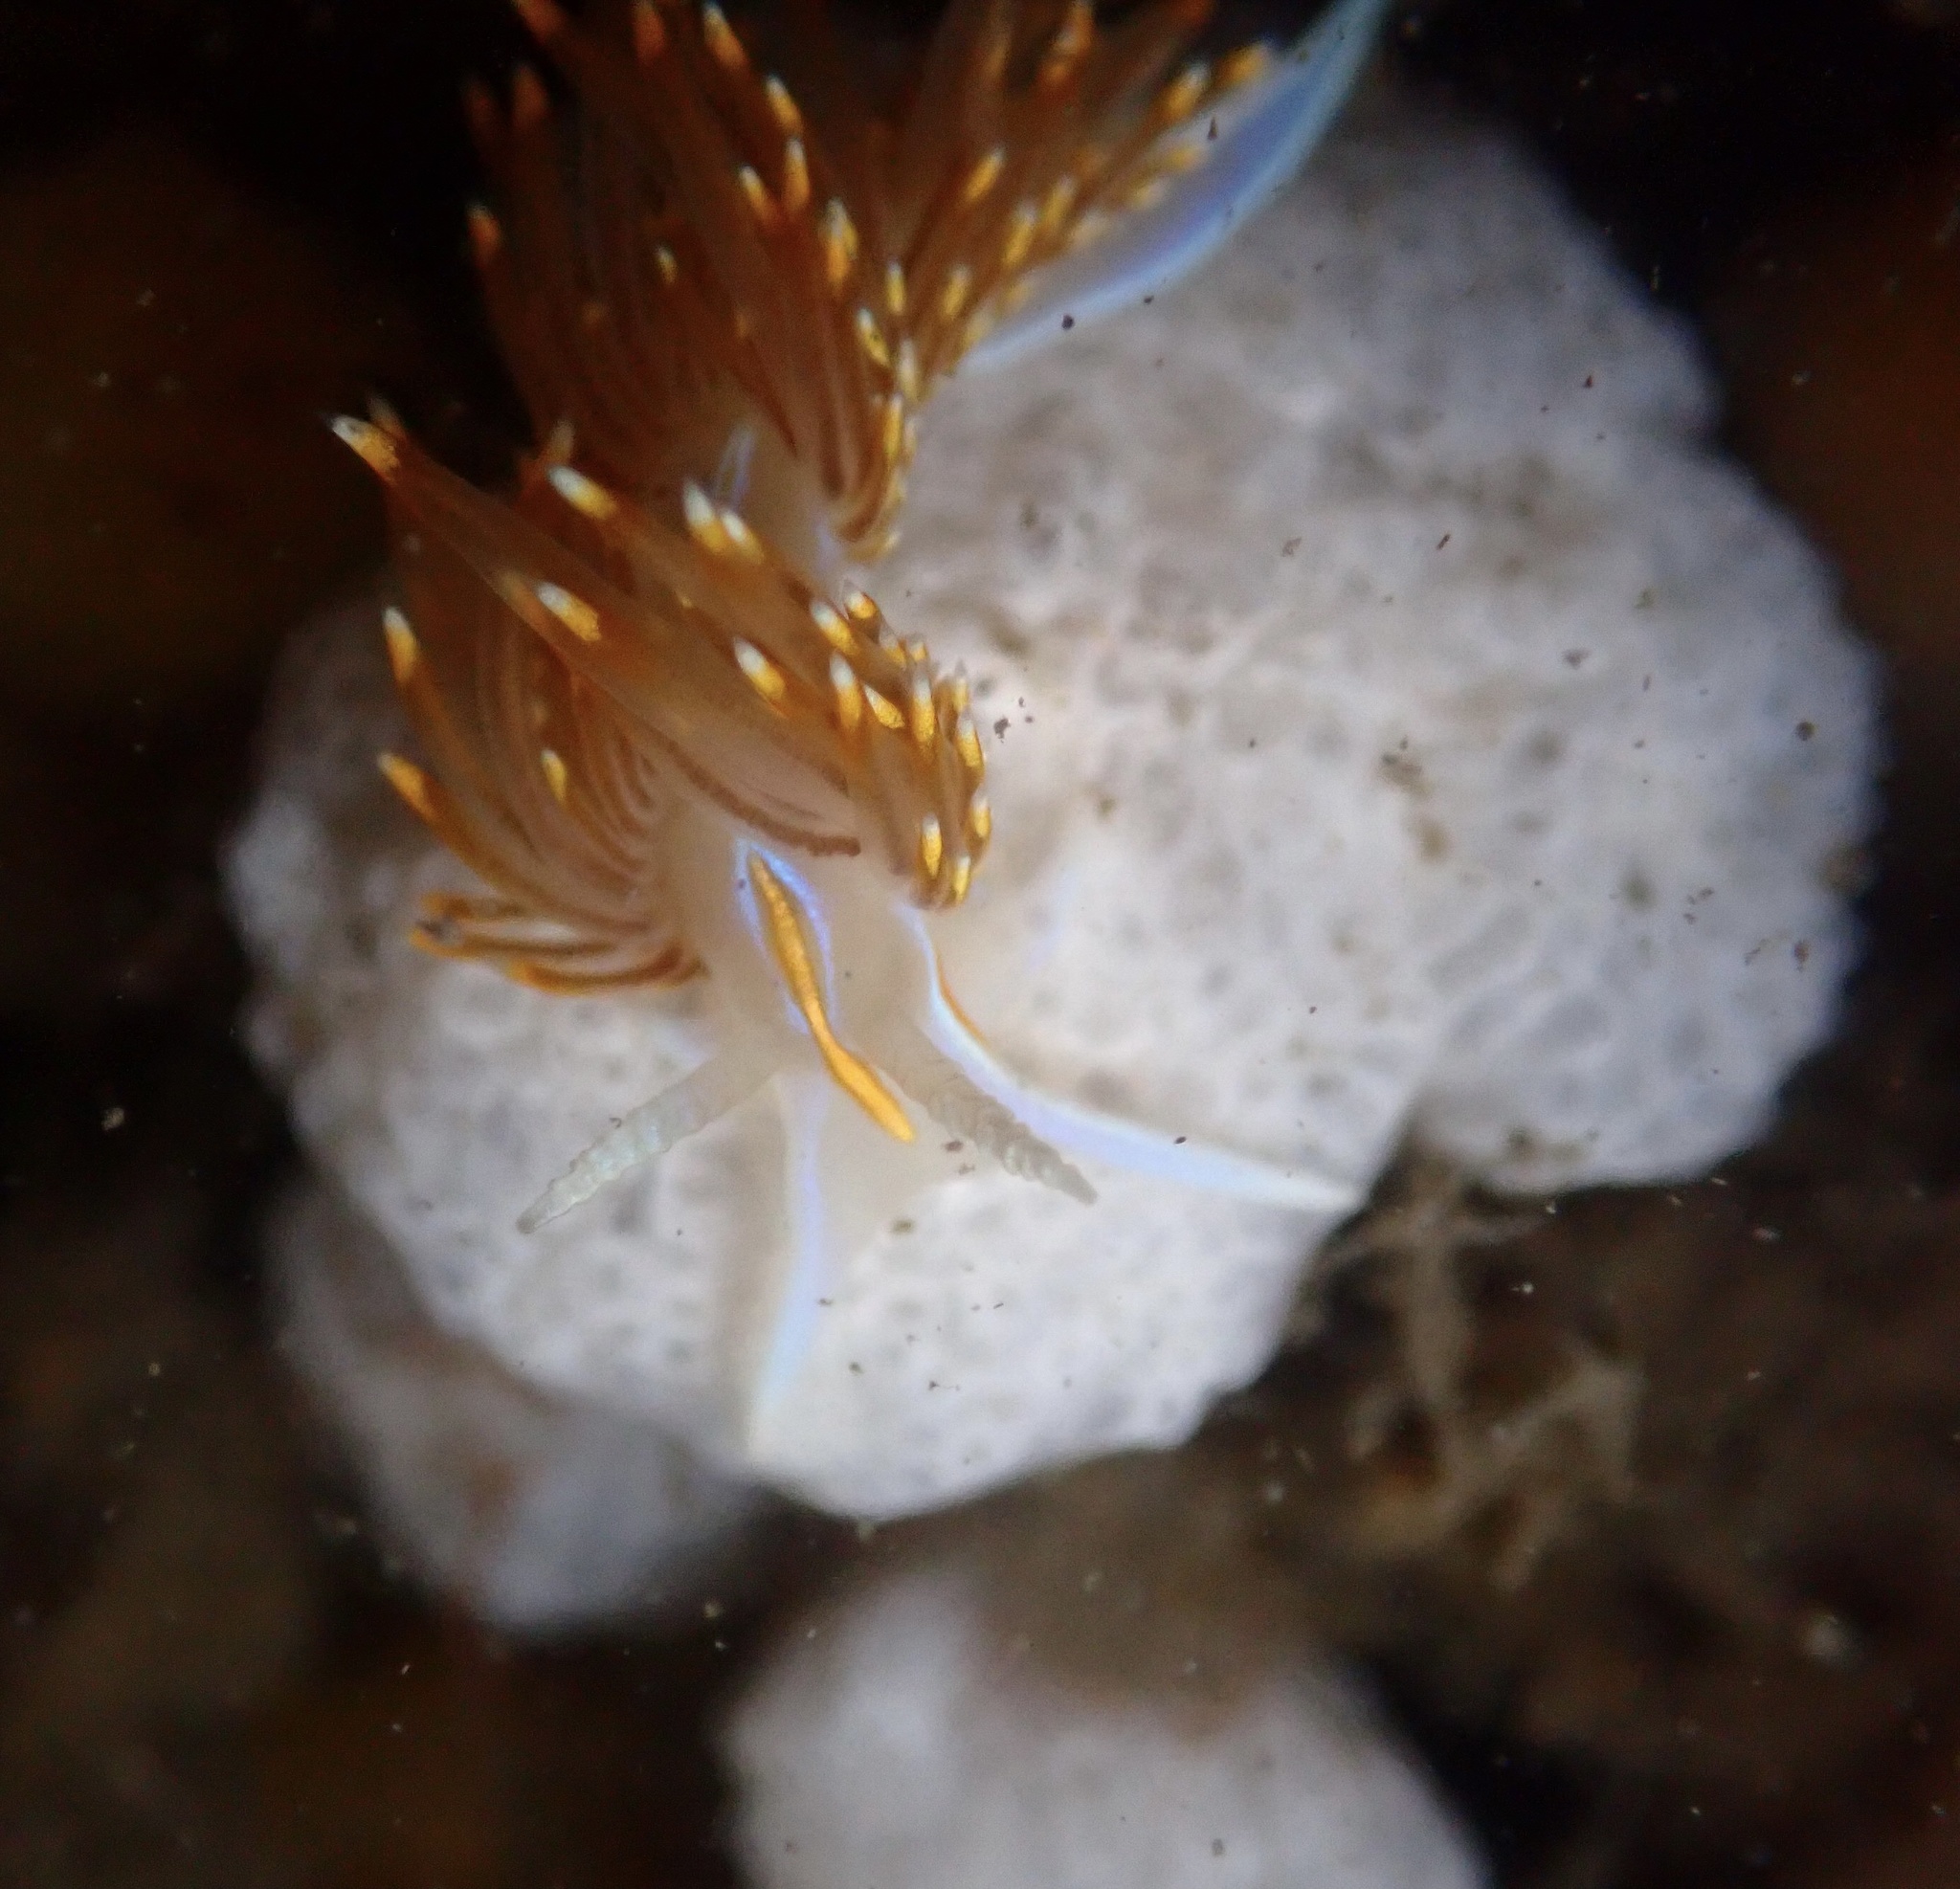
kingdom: Animalia
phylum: Mollusca
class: Gastropoda
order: Nudibranchia
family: Myrrhinidae
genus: Hermissenda
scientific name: Hermissenda opalescens
